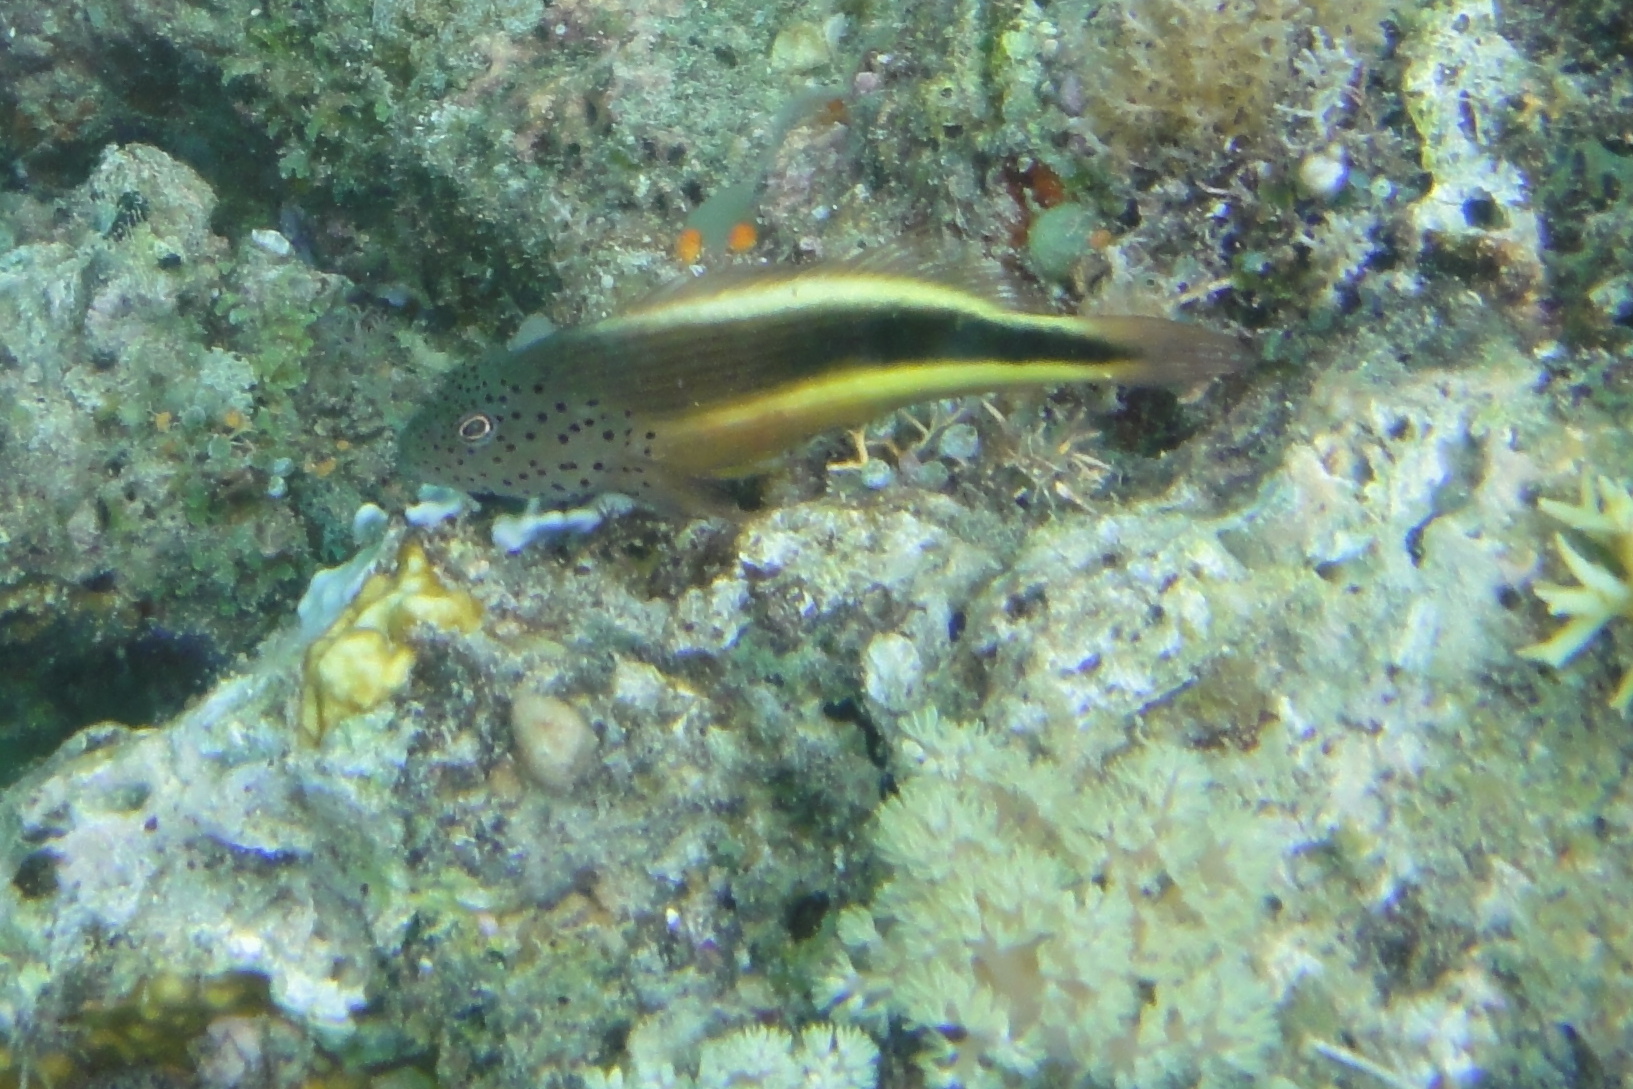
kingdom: Animalia
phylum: Chordata
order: Perciformes
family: Cirrhitidae
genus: Paracirrhites
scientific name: Paracirrhites forsteri
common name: Freckled hawkfish
